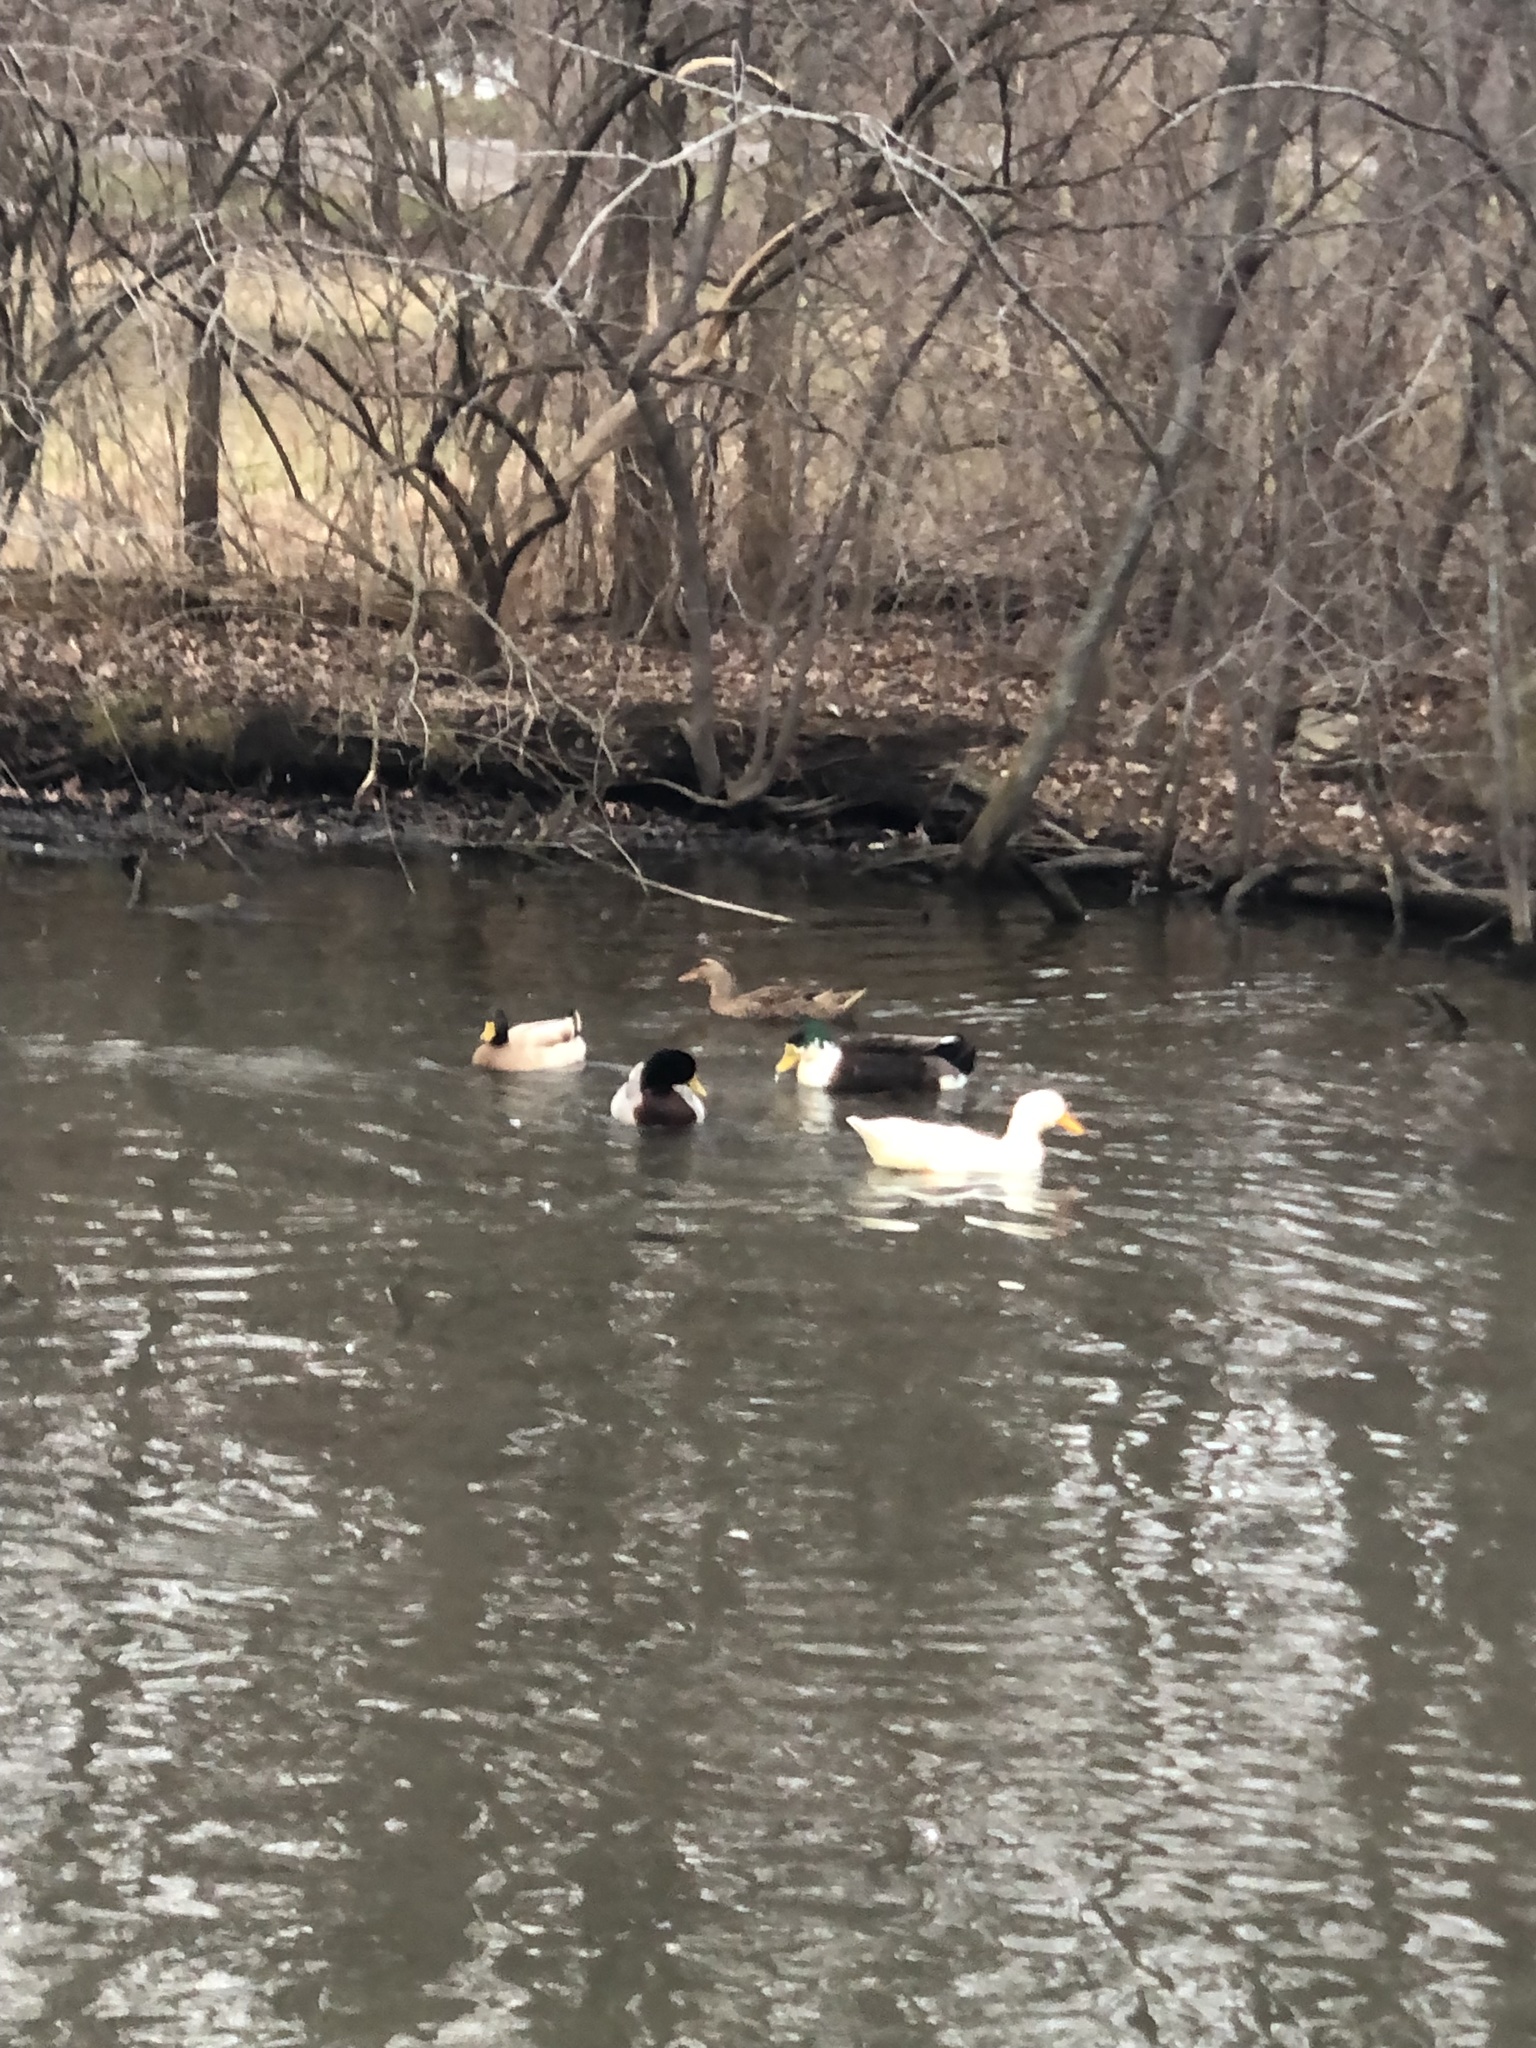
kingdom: Animalia
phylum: Chordata
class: Aves
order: Anseriformes
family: Anatidae
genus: Anas
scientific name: Anas platyrhynchos
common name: Mallard
